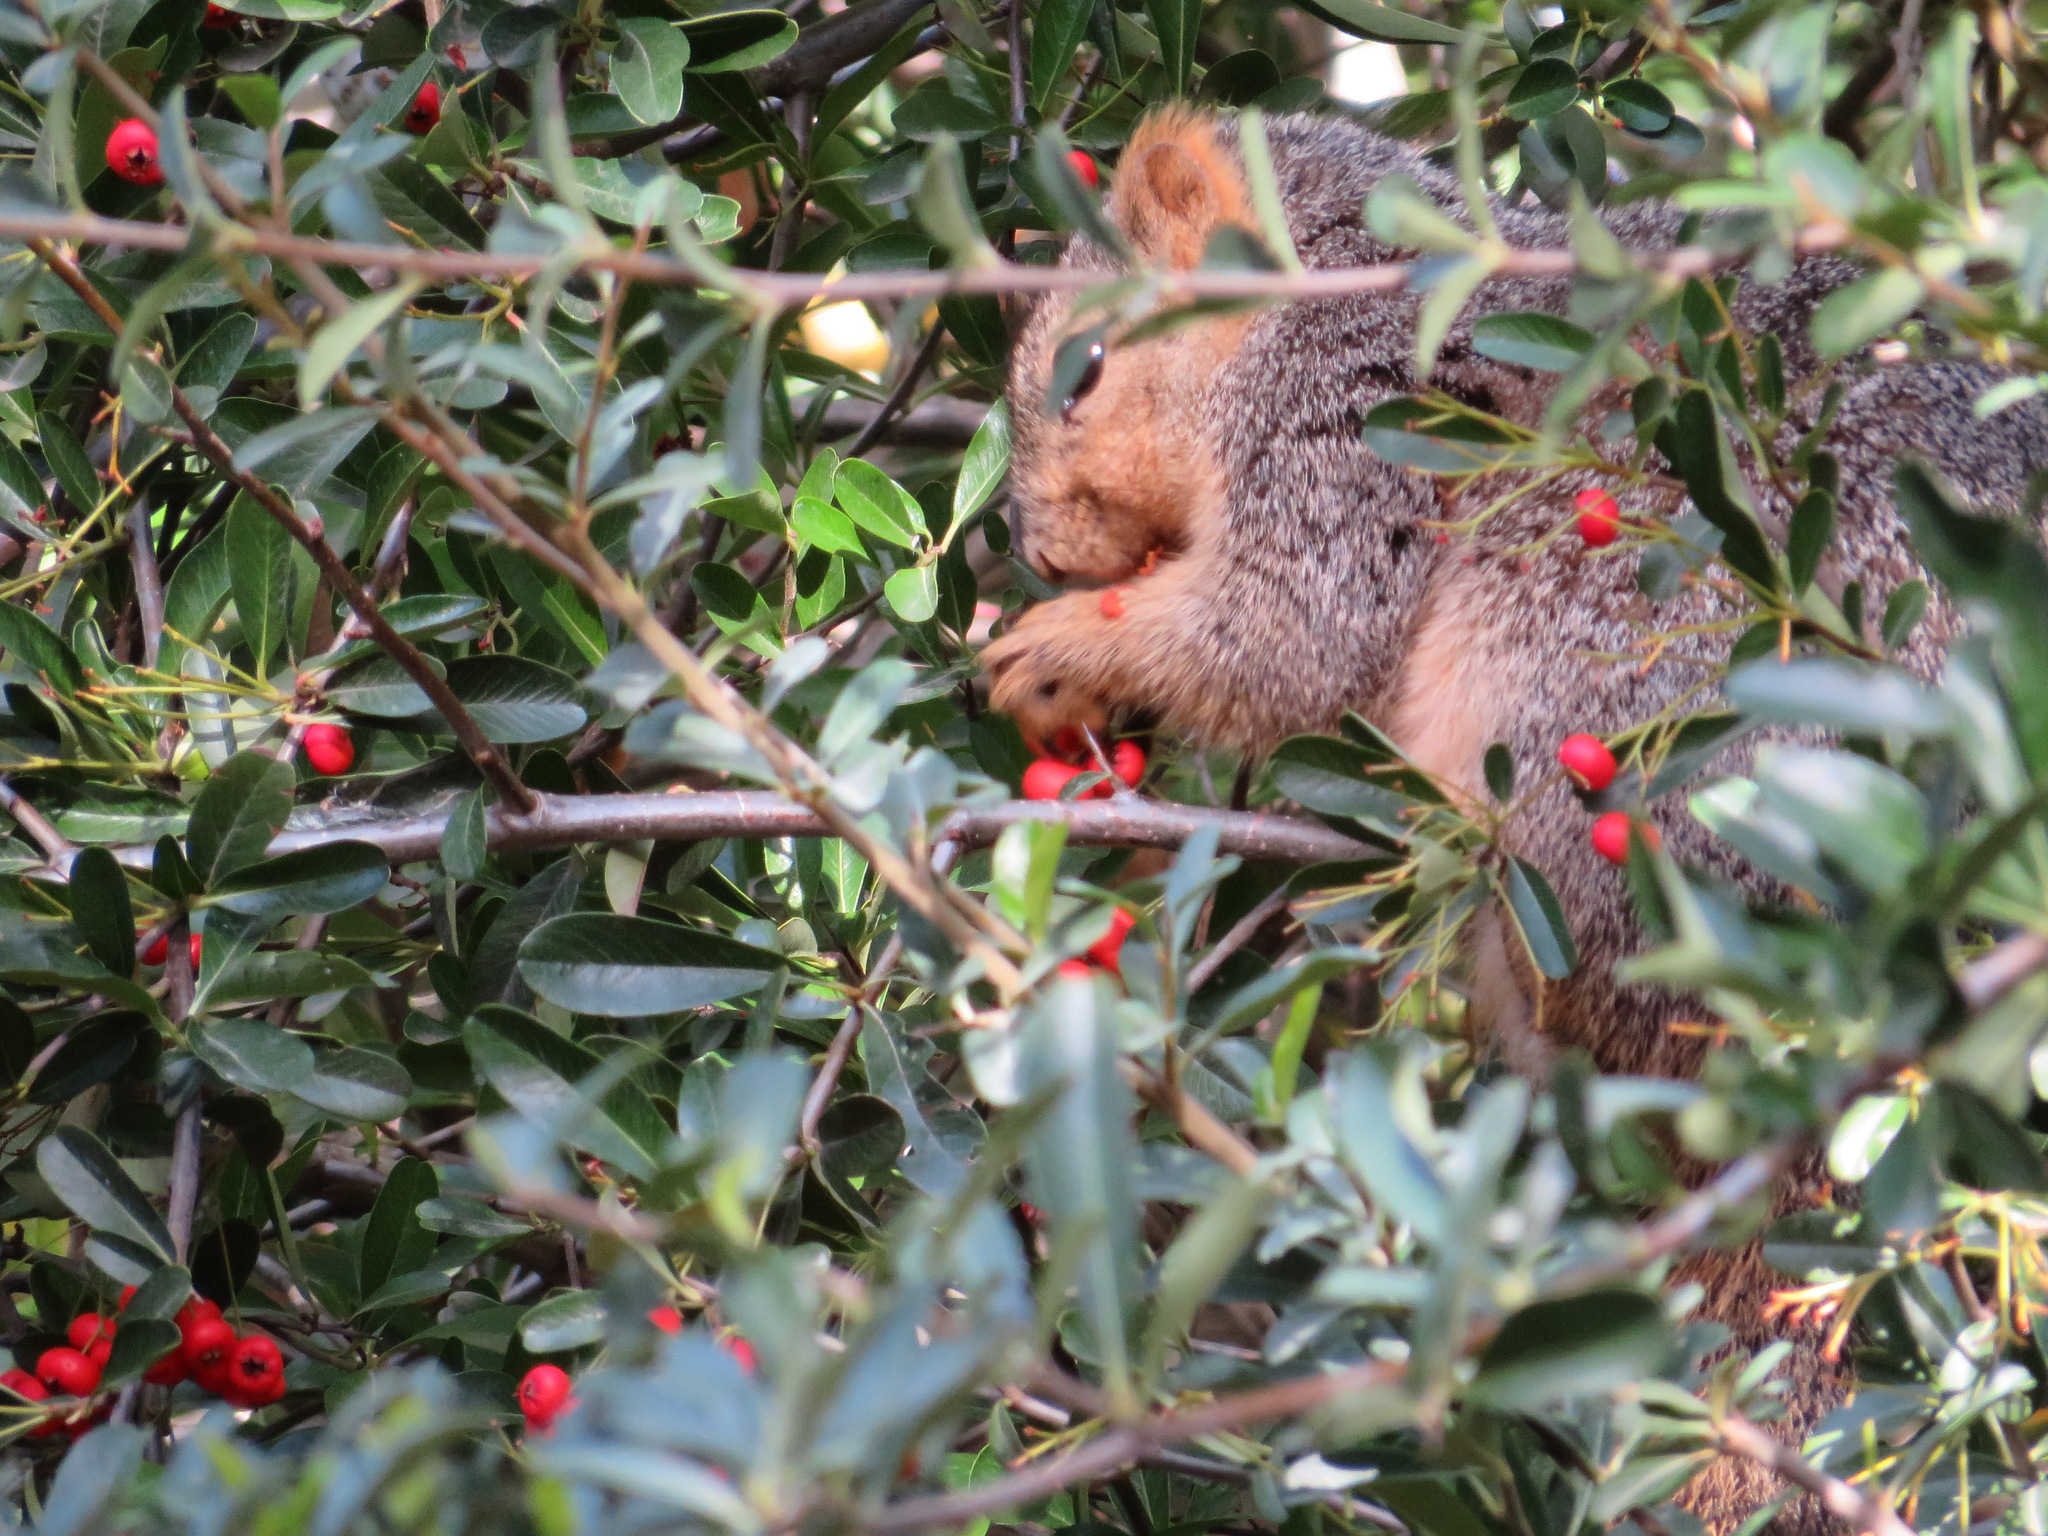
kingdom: Animalia
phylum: Chordata
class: Mammalia
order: Rodentia
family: Sciuridae
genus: Sciurus
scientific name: Sciurus niger
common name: Fox squirrel
